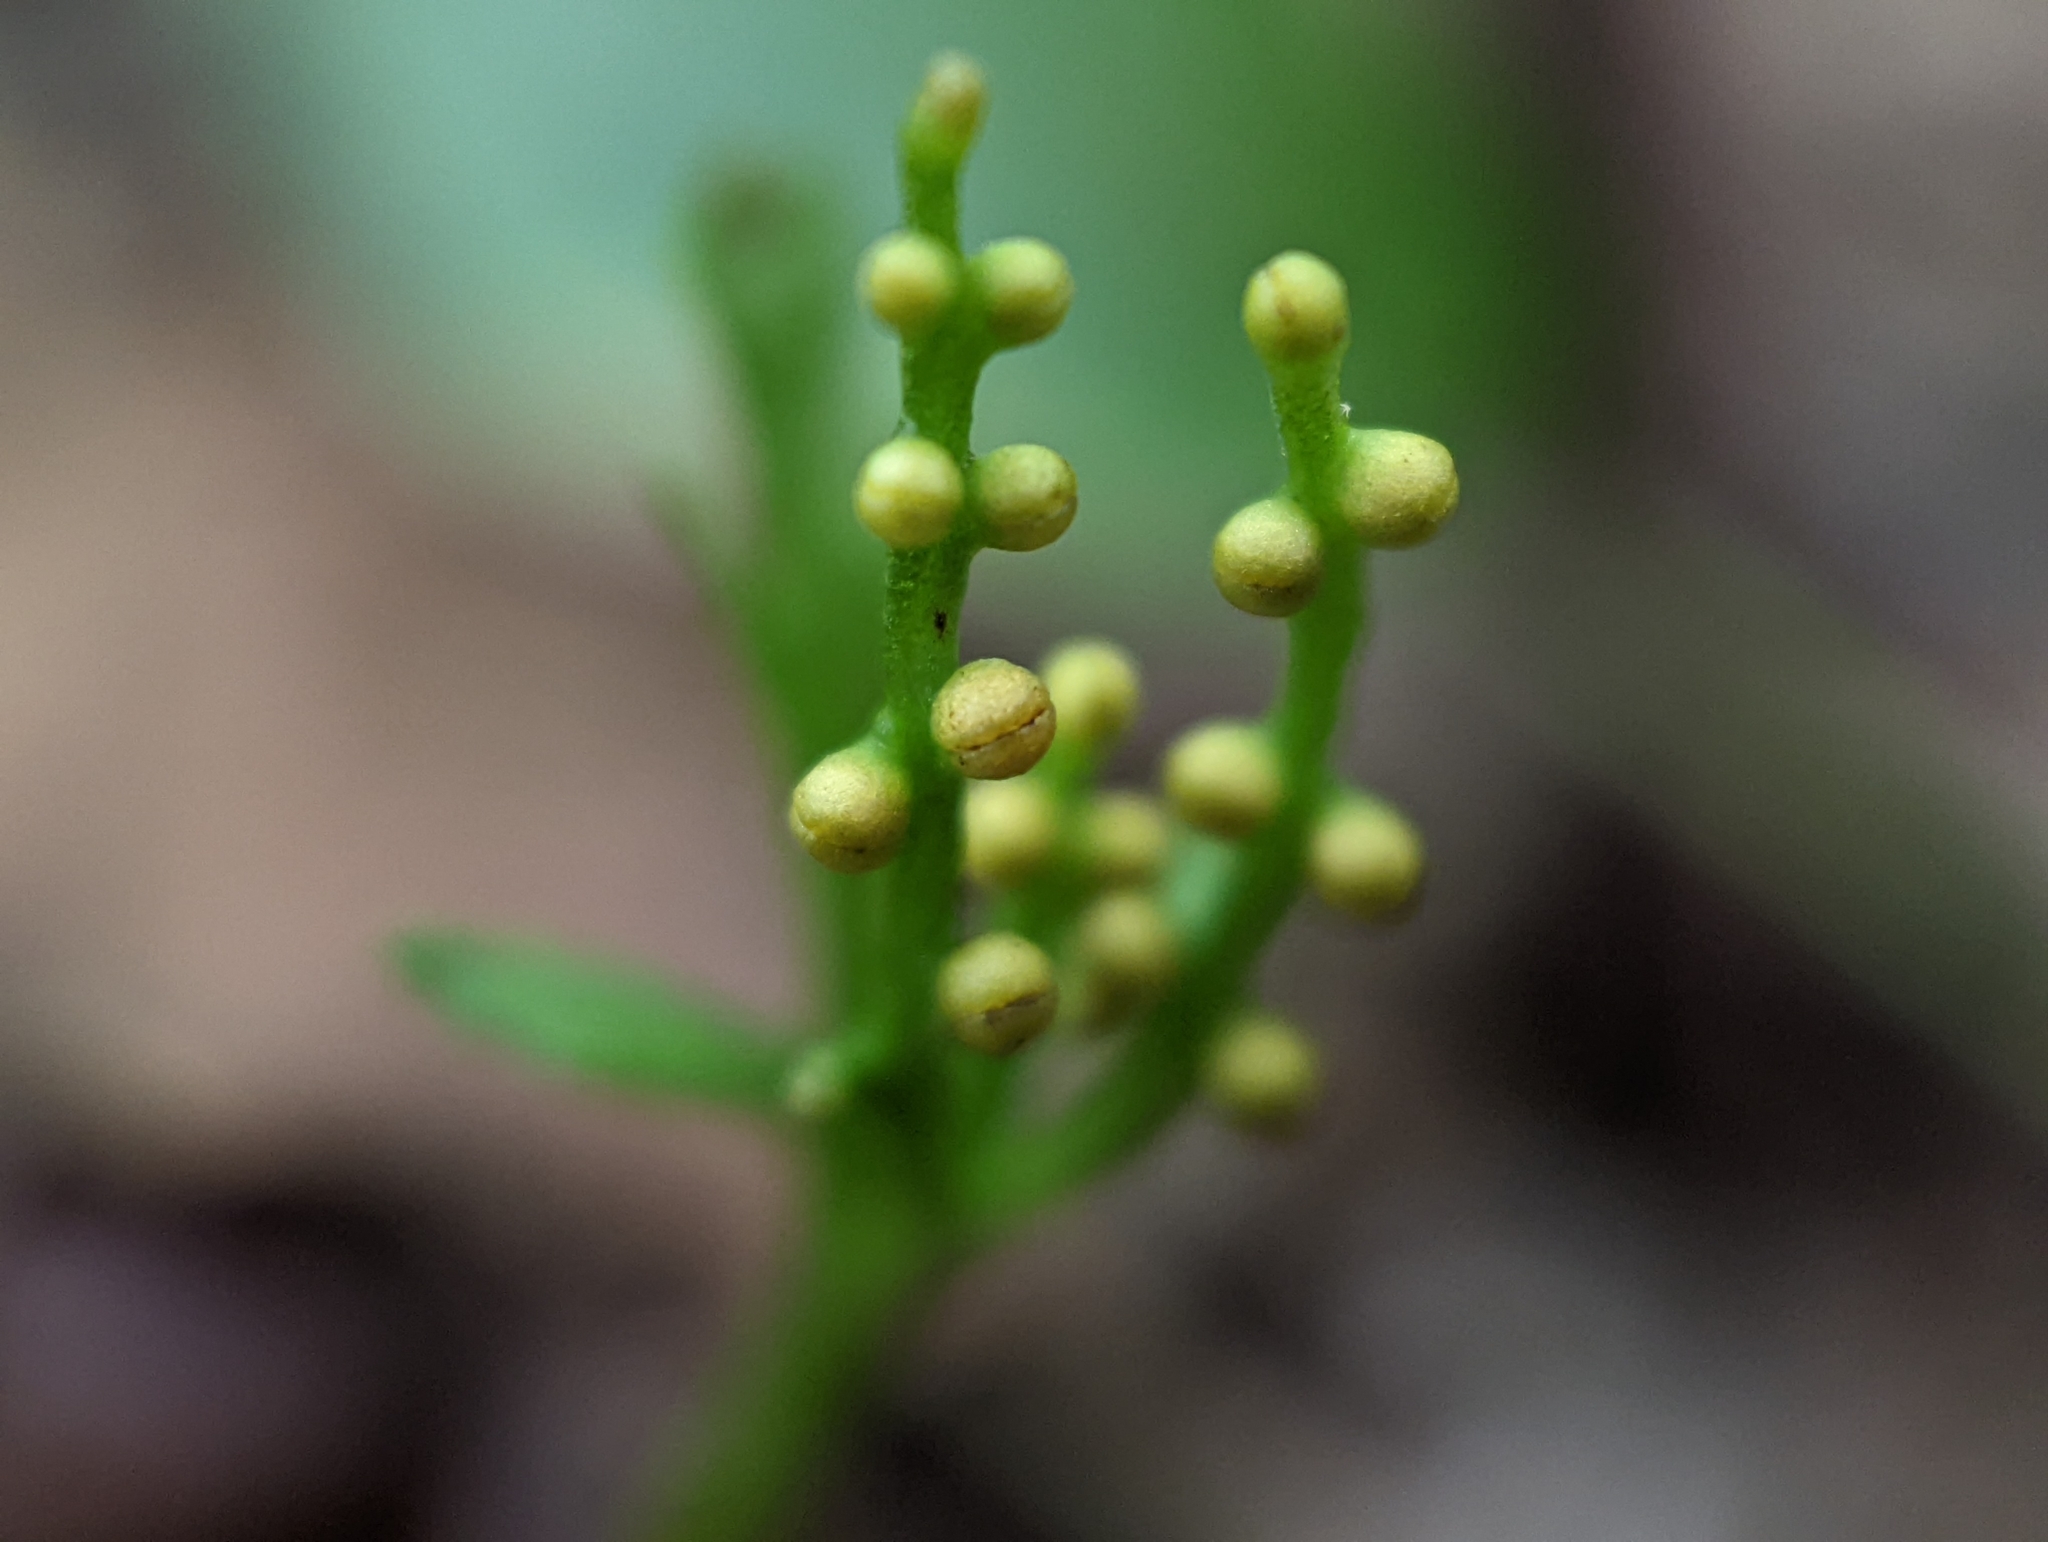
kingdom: Plantae
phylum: Tracheophyta
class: Polypodiopsida
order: Ophioglossales
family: Ophioglossaceae
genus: Botrychium
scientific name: Botrychium angustisegmentum
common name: Narrow triangle moonwort
